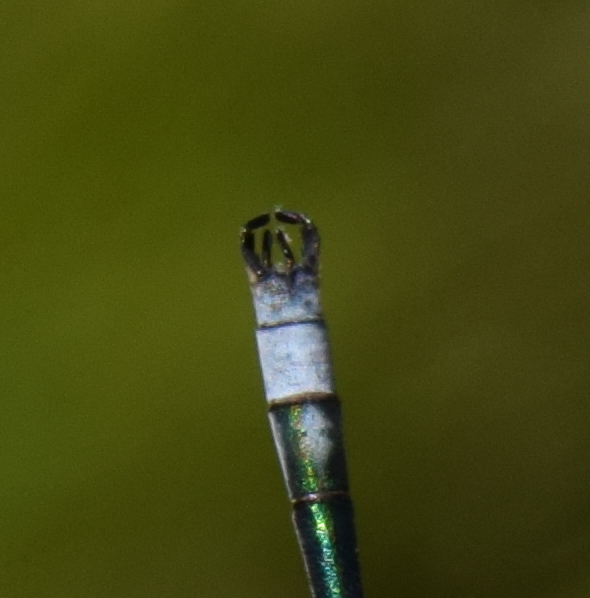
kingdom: Animalia
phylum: Arthropoda
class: Insecta
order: Odonata
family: Lestidae
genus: Lestes
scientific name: Lestes sponsa
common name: Common spreadwing
